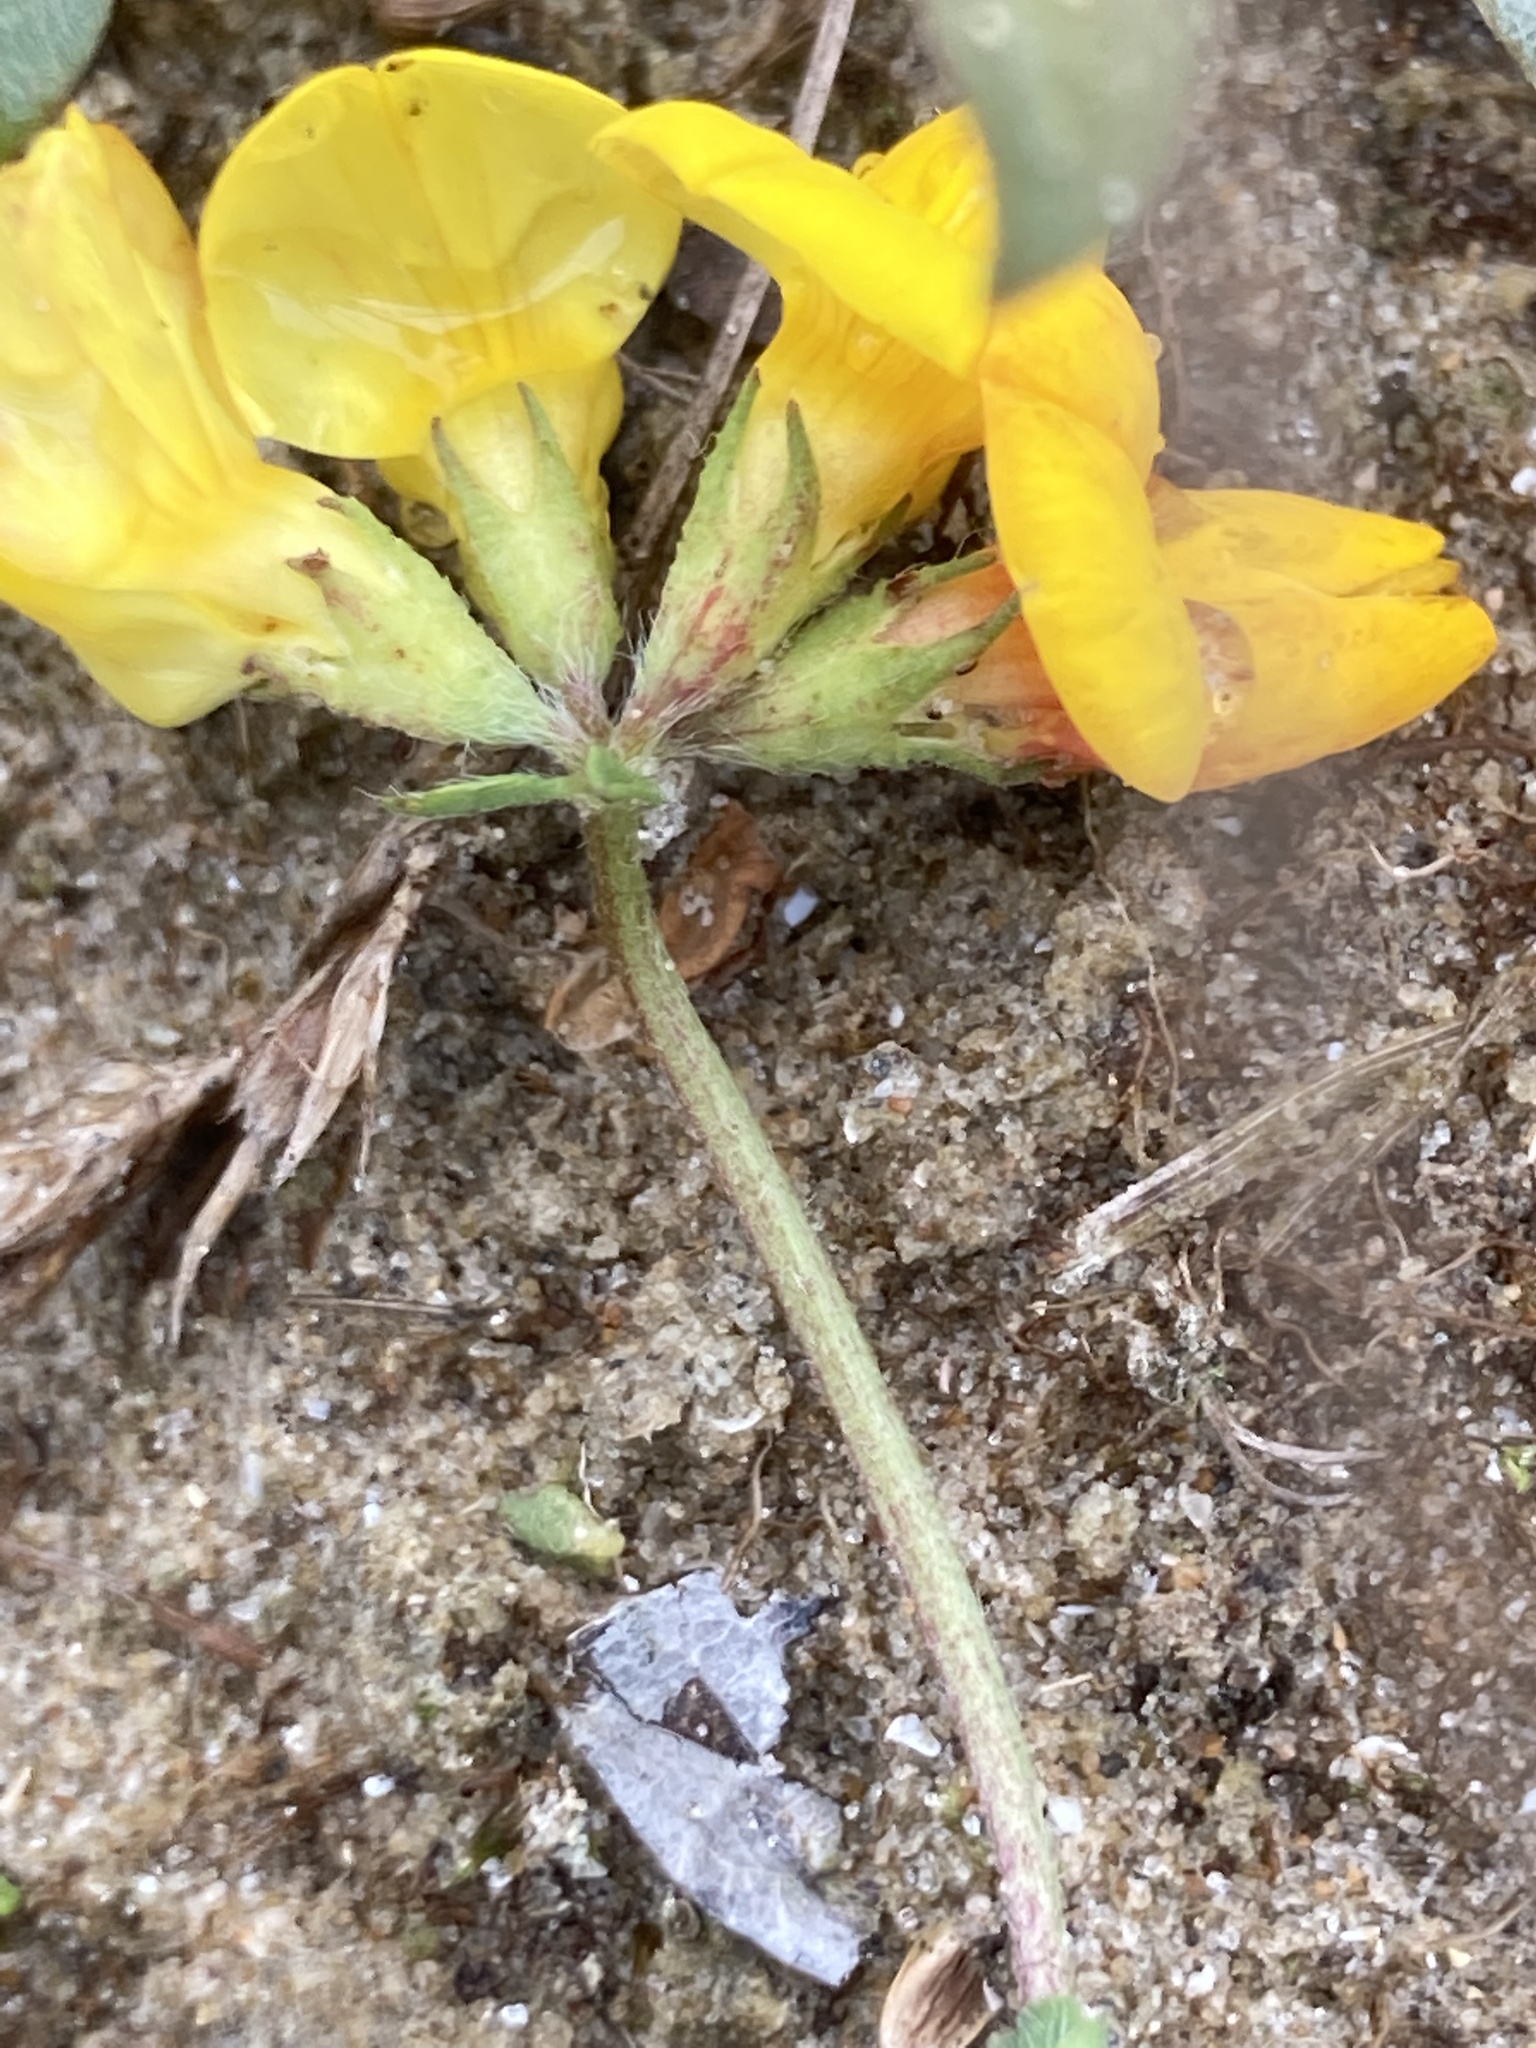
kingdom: Plantae
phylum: Tracheophyta
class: Magnoliopsida
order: Fabales
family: Fabaceae
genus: Lotus
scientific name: Lotus corniculatus
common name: Common bird's-foot-trefoil
